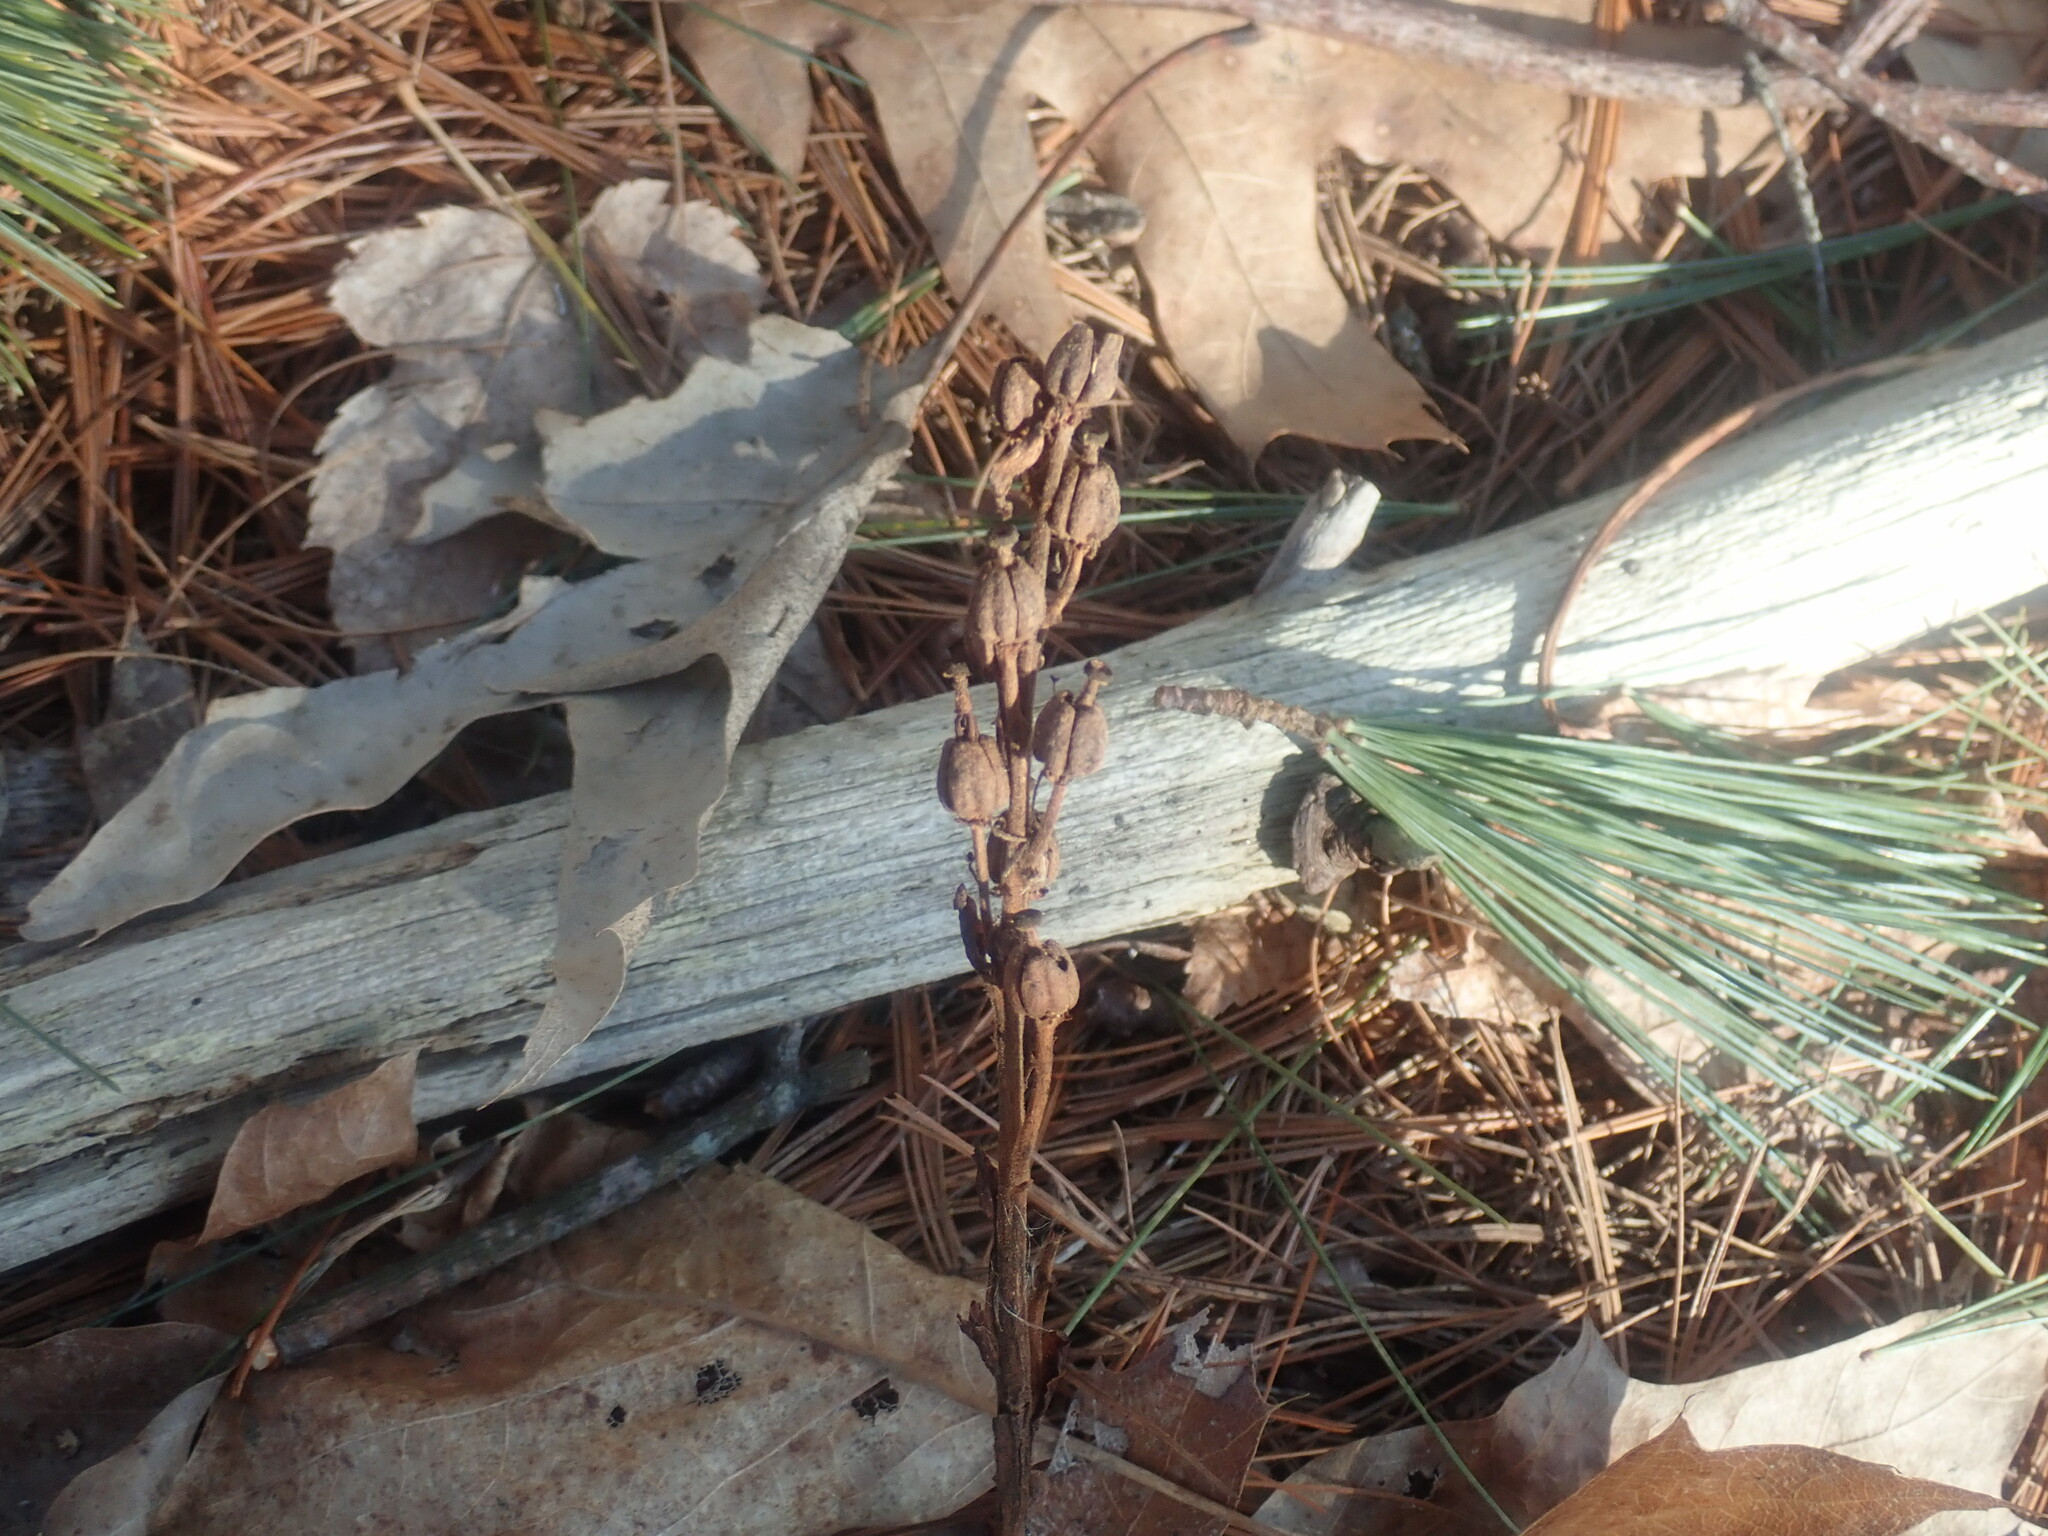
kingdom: Plantae
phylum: Tracheophyta
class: Magnoliopsida
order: Ericales
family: Ericaceae
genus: Hypopitys
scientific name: Hypopitys monotropa
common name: Yellow bird's-nest
